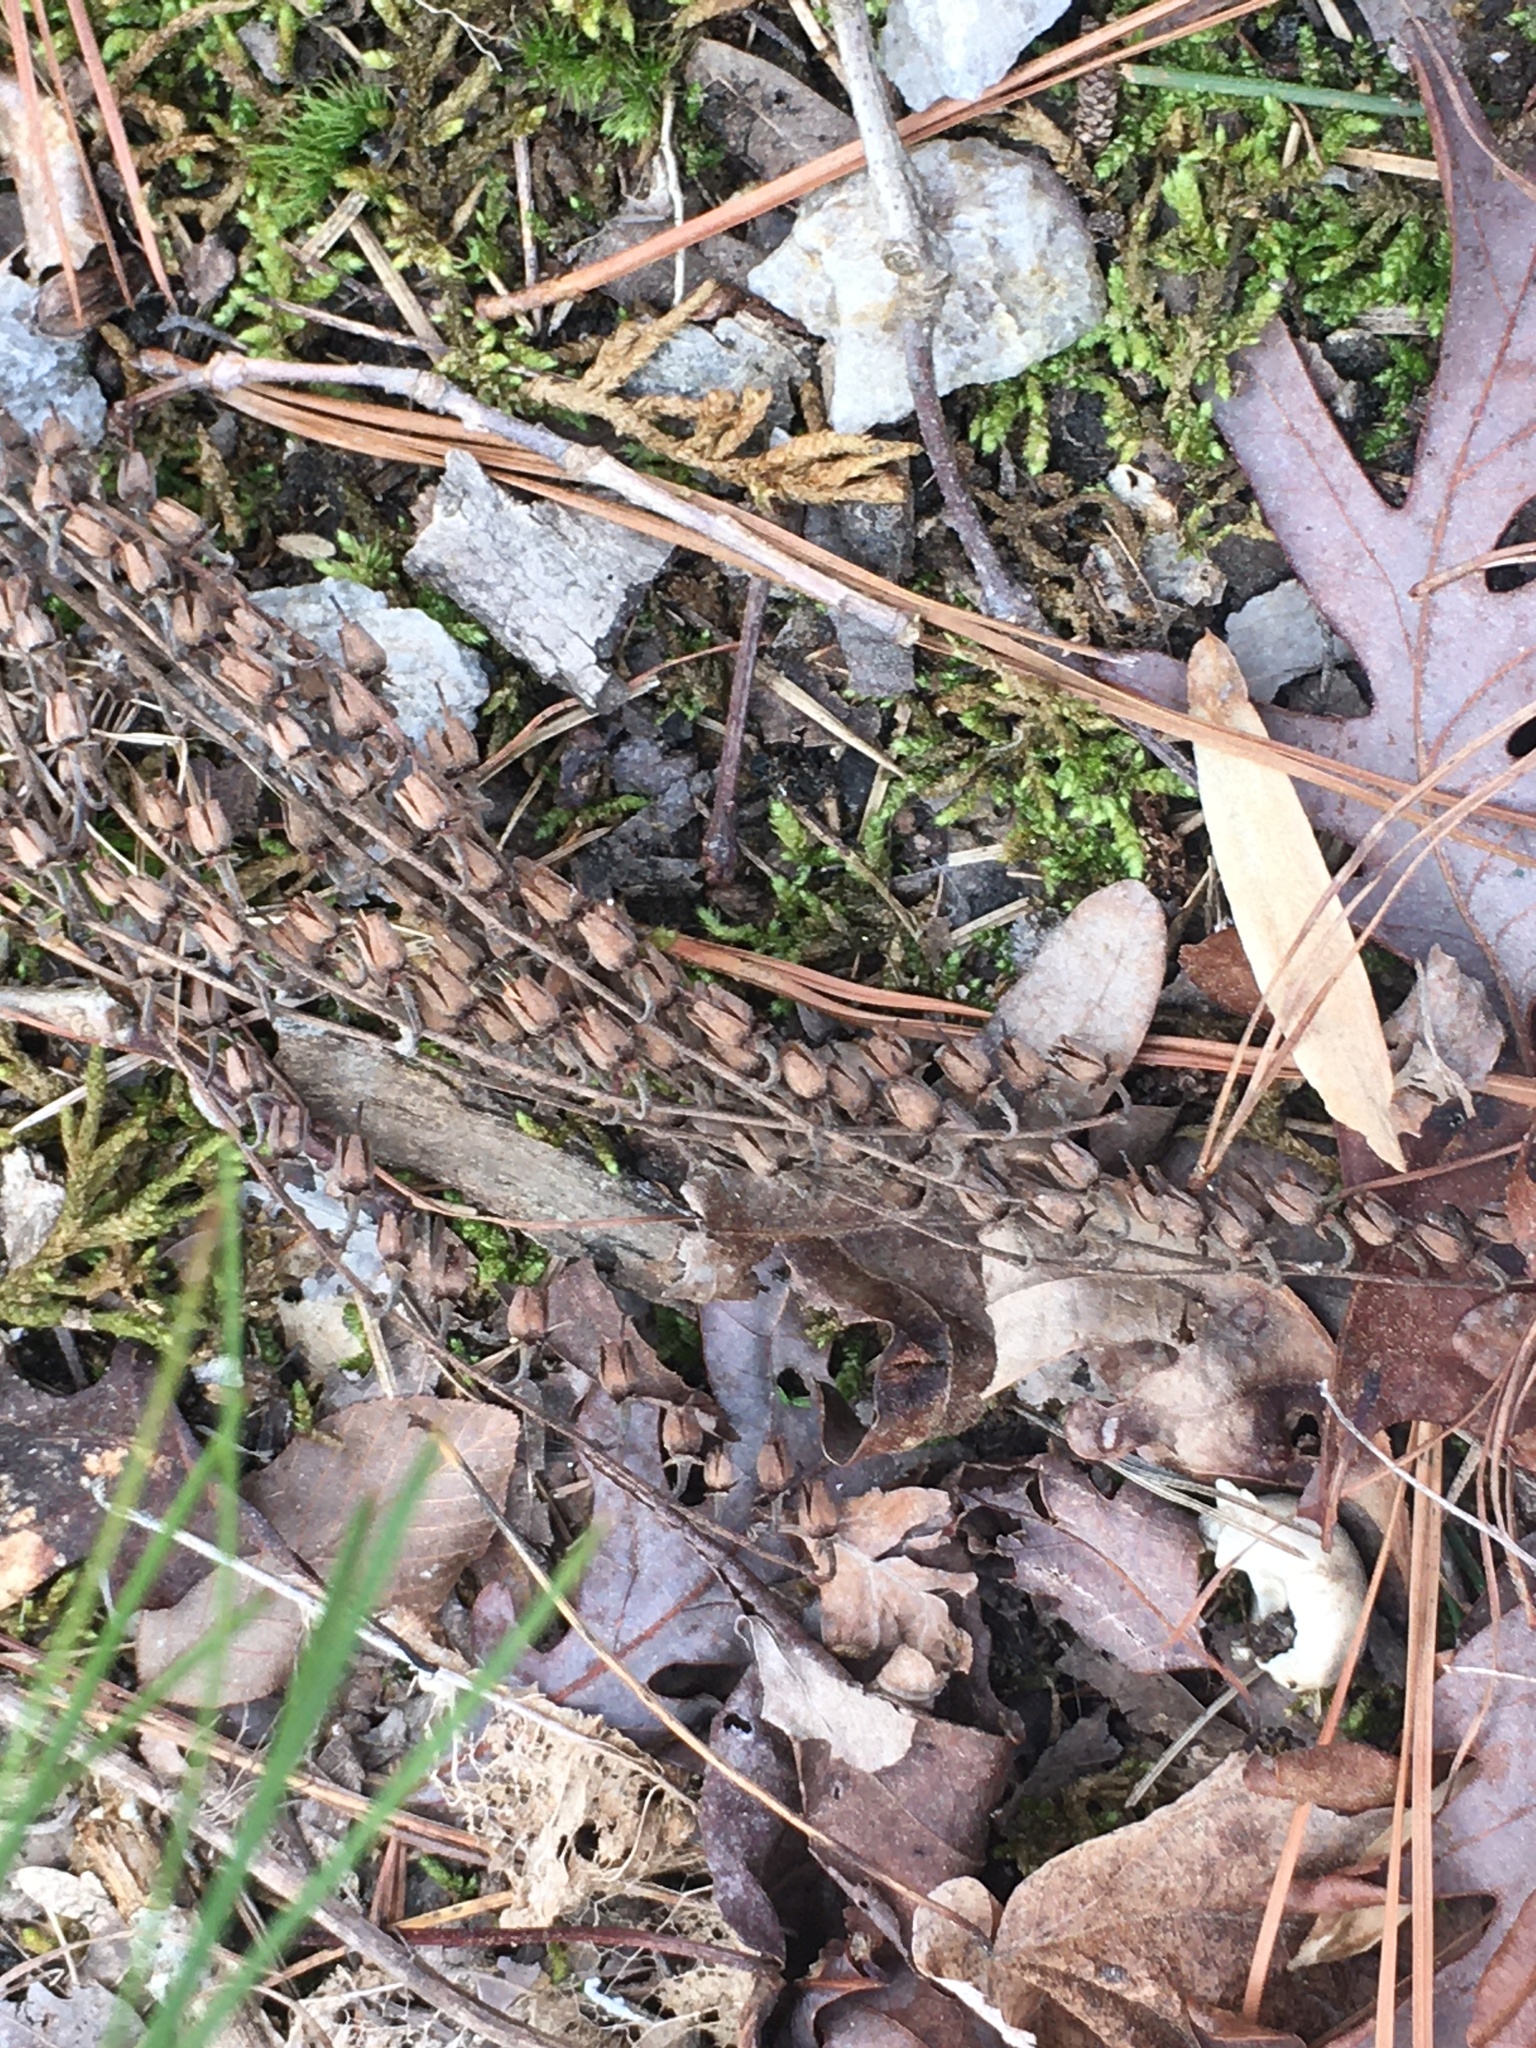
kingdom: Plantae
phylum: Tracheophyta
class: Magnoliopsida
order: Ericales
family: Ericaceae
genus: Oxydendrum
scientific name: Oxydendrum arboreum
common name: Sourwood
